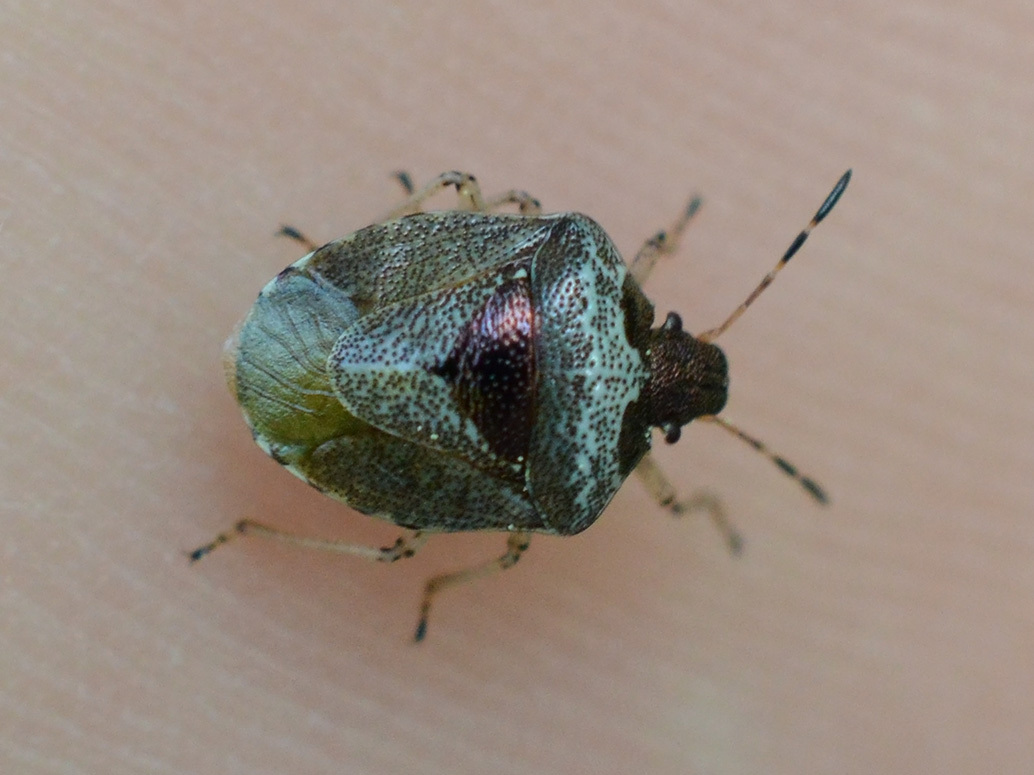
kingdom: Animalia
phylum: Arthropoda
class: Insecta
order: Hemiptera
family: Pentatomidae
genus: Eysarcoris
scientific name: Eysarcoris venustissimus
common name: Woundwort shieldbug
